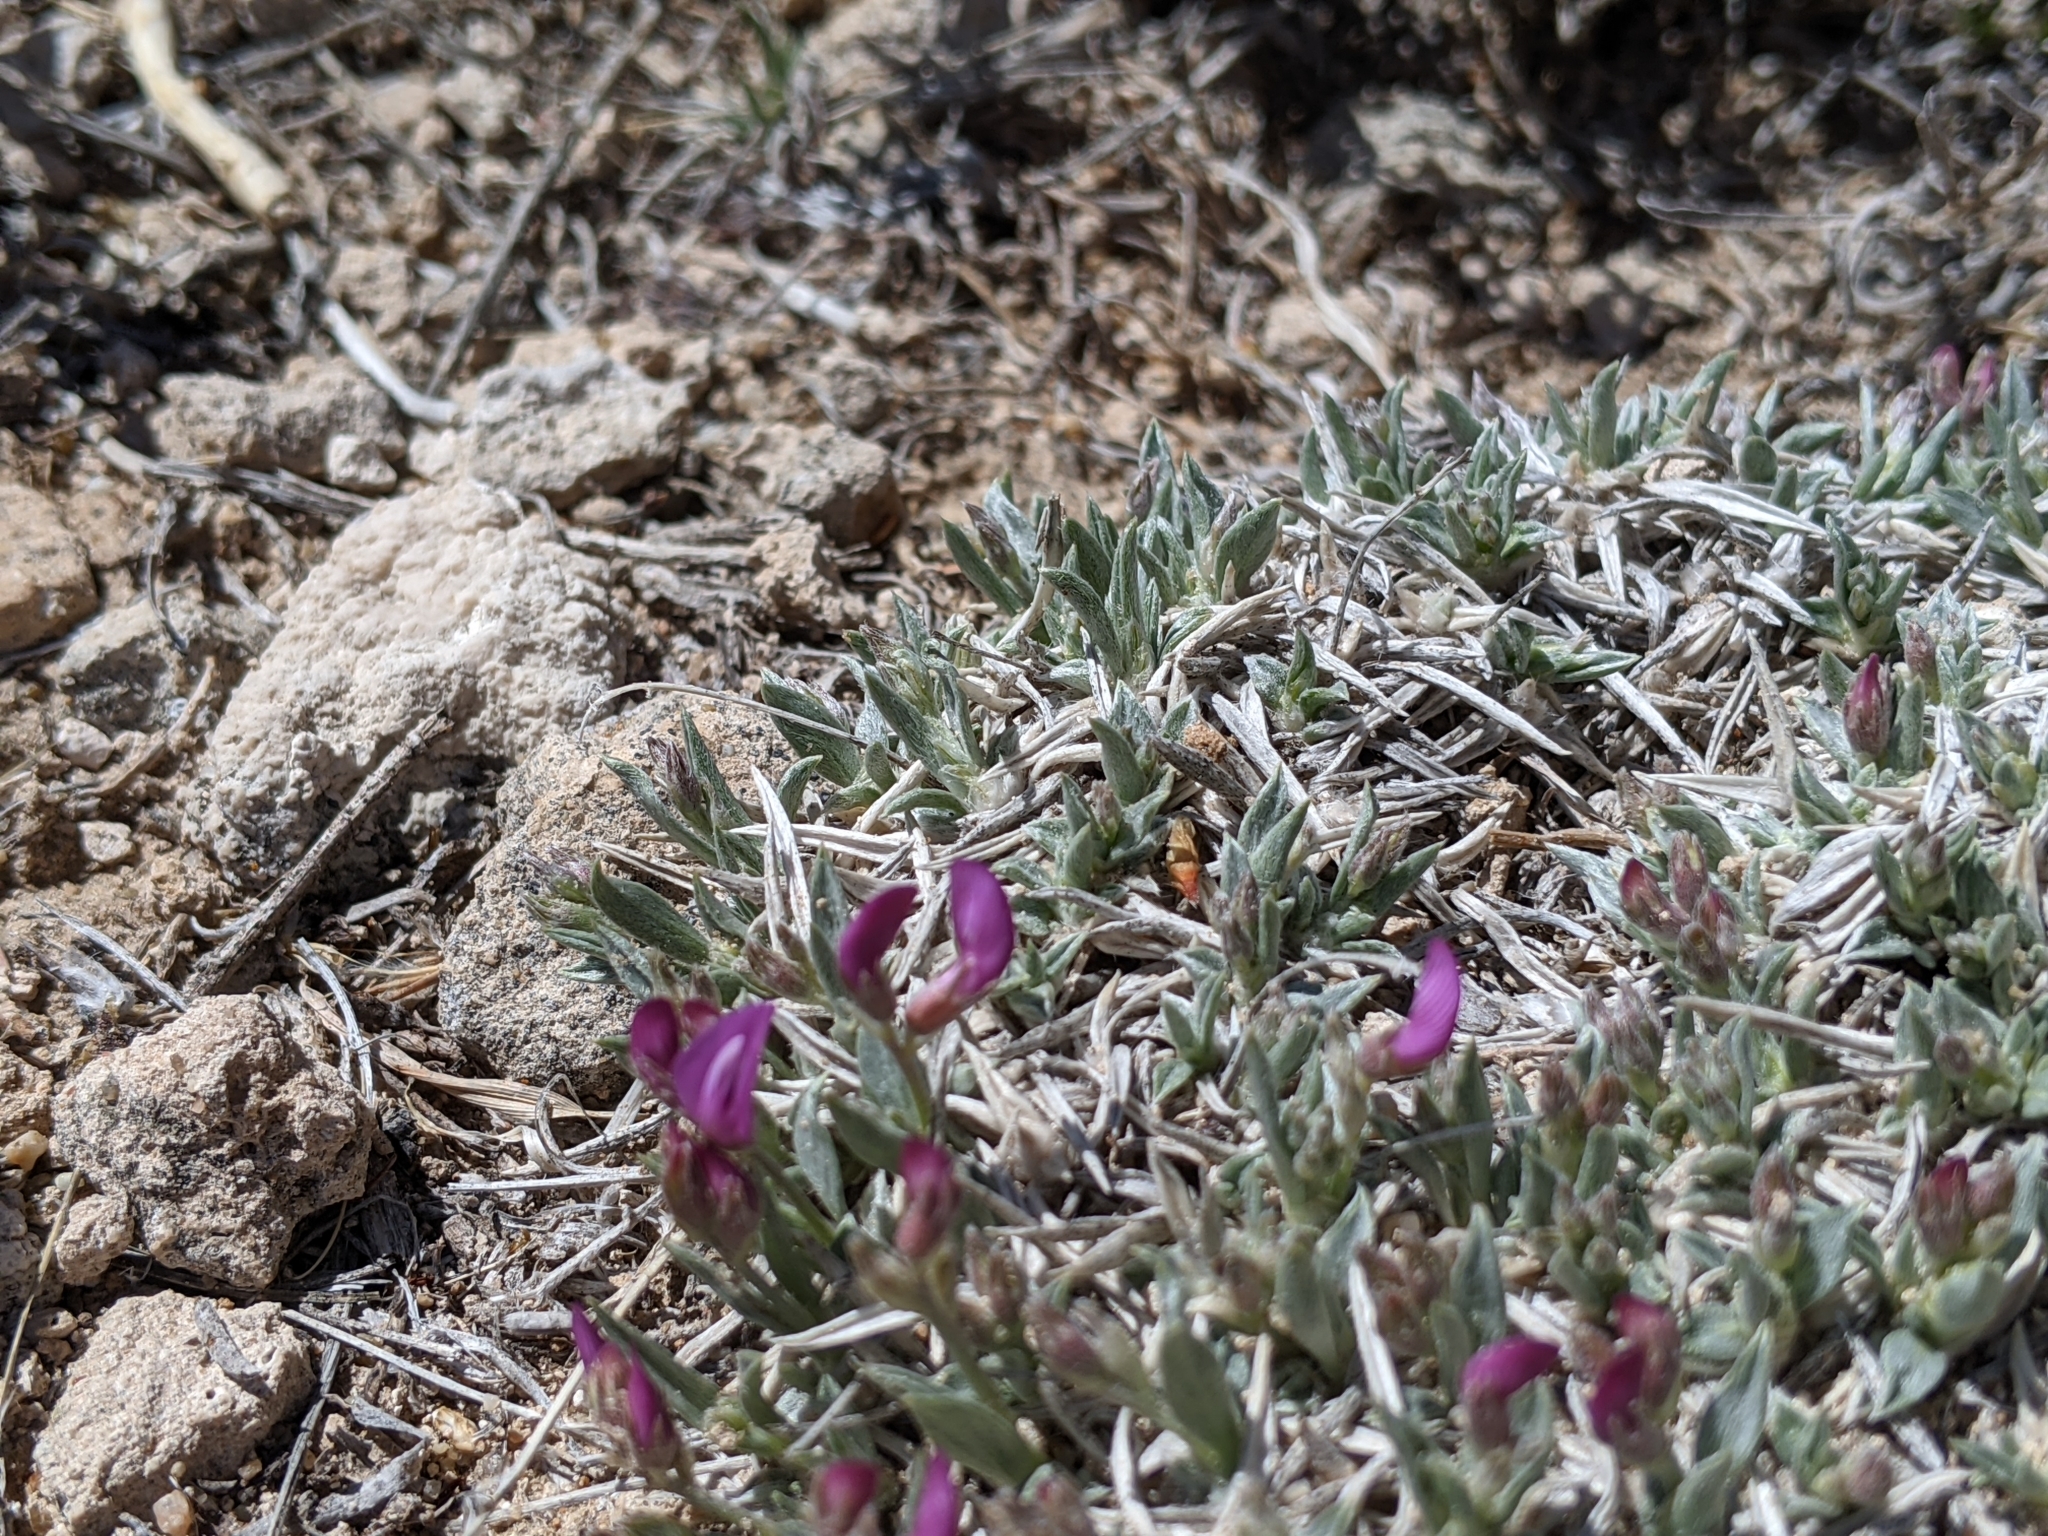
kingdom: Plantae
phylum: Tracheophyta
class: Magnoliopsida
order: Fabales
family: Fabaceae
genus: Astragalus
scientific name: Astragalus spatulatus
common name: Draba milk-vetch
